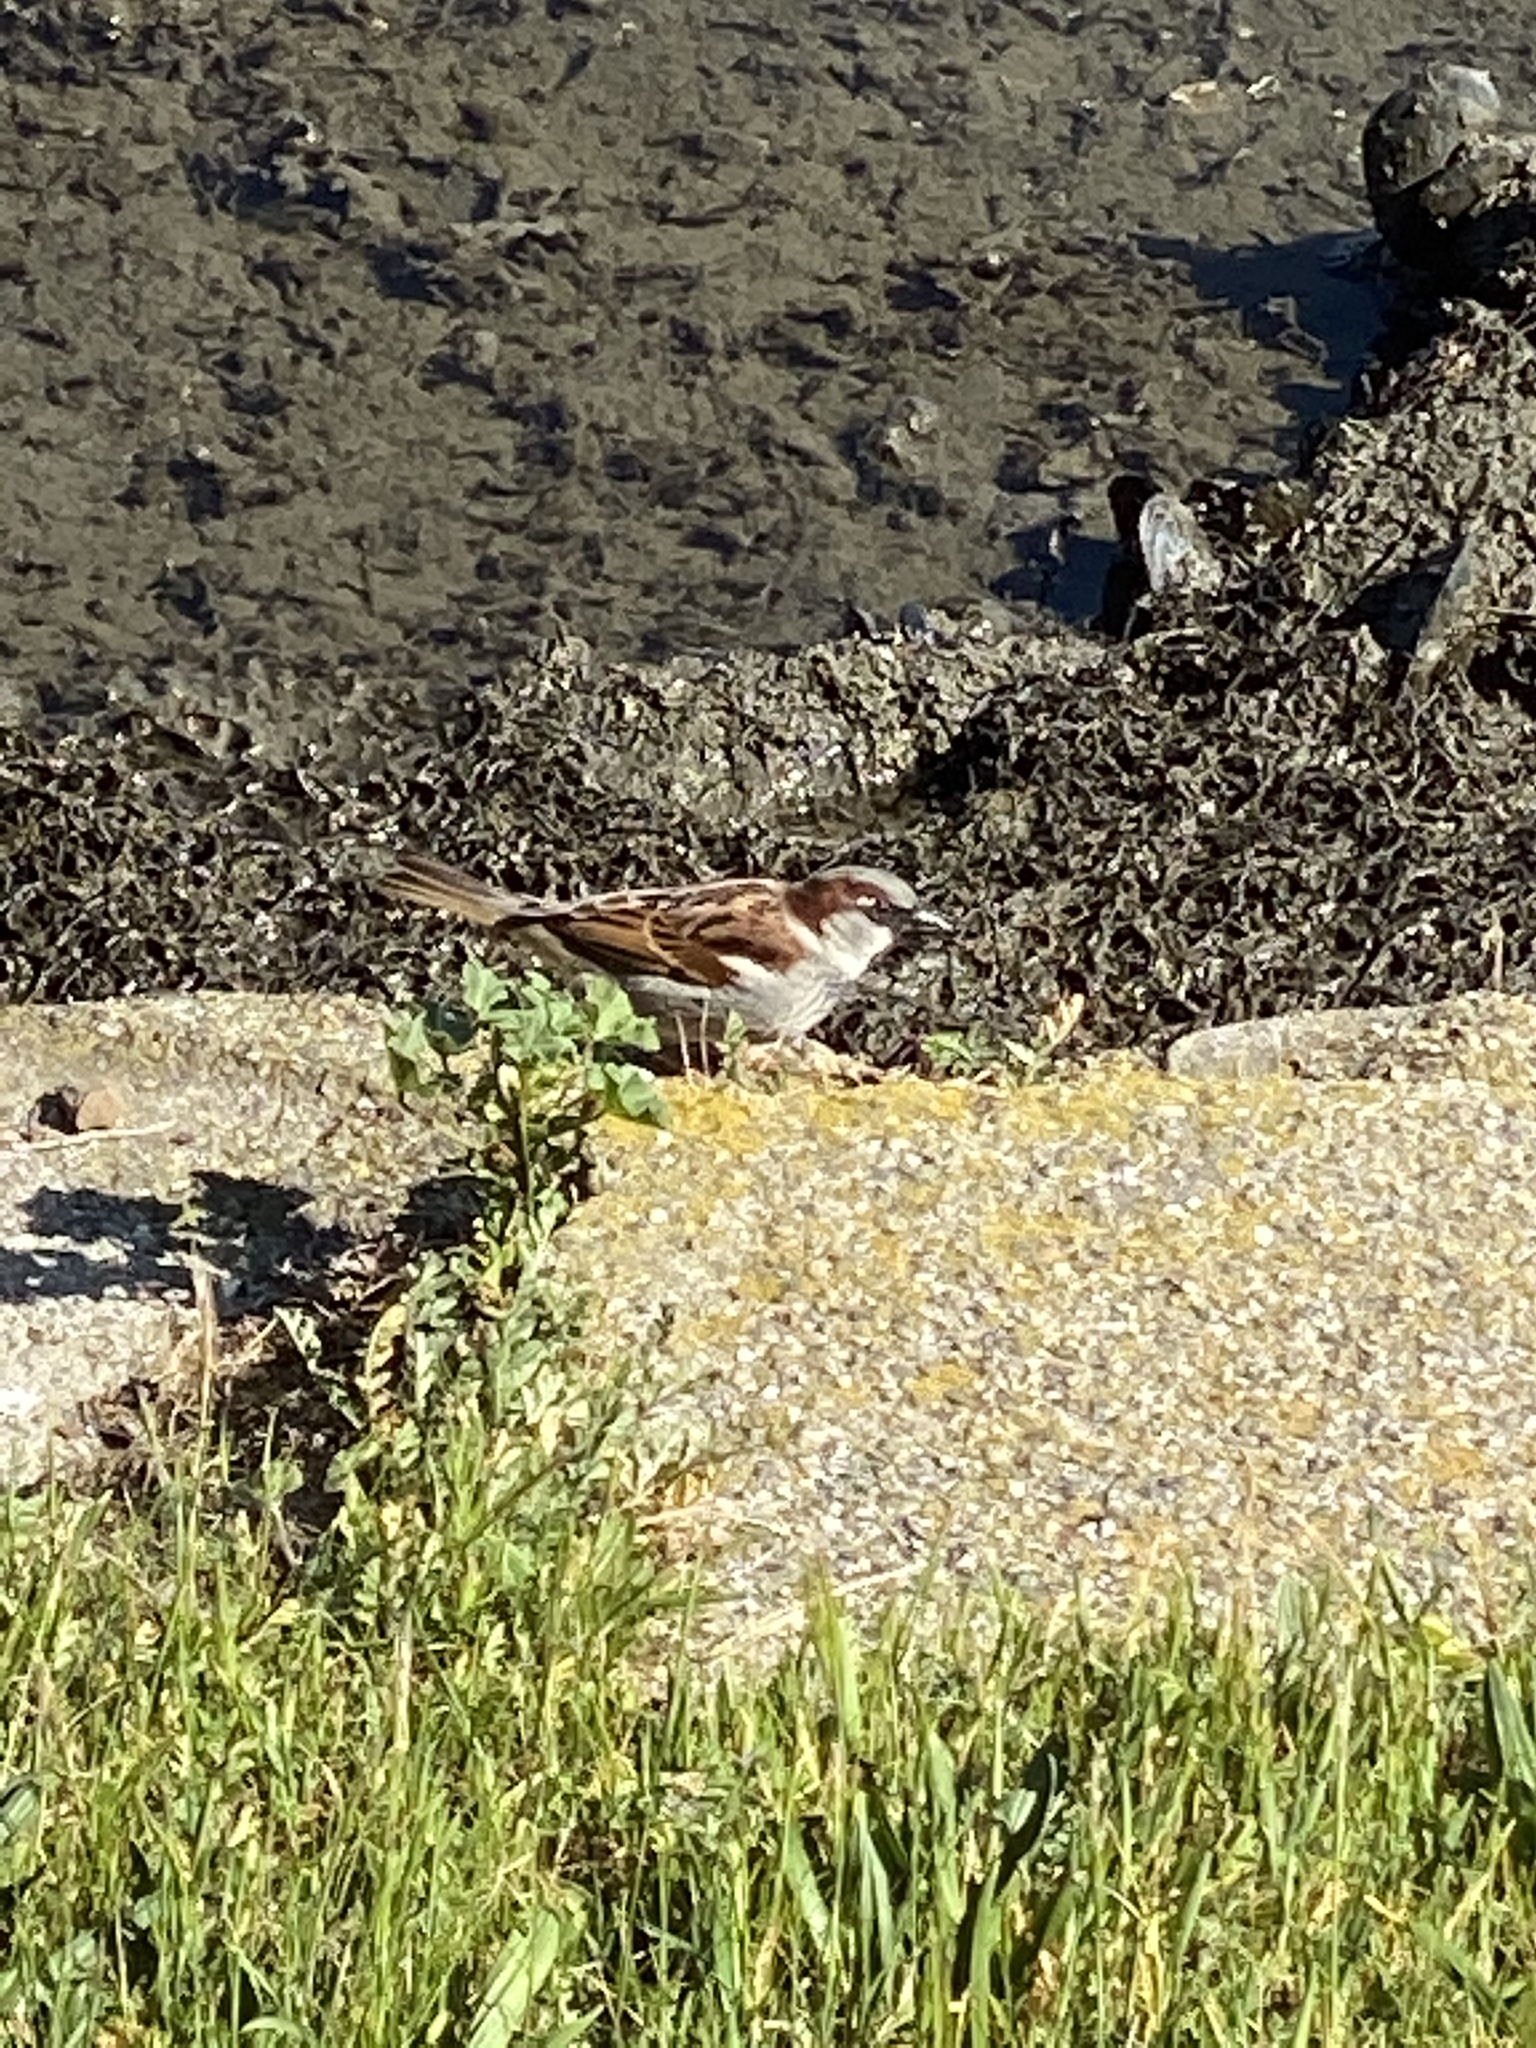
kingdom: Animalia
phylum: Chordata
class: Aves
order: Passeriformes
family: Passeridae
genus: Passer
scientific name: Passer domesticus
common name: House sparrow
